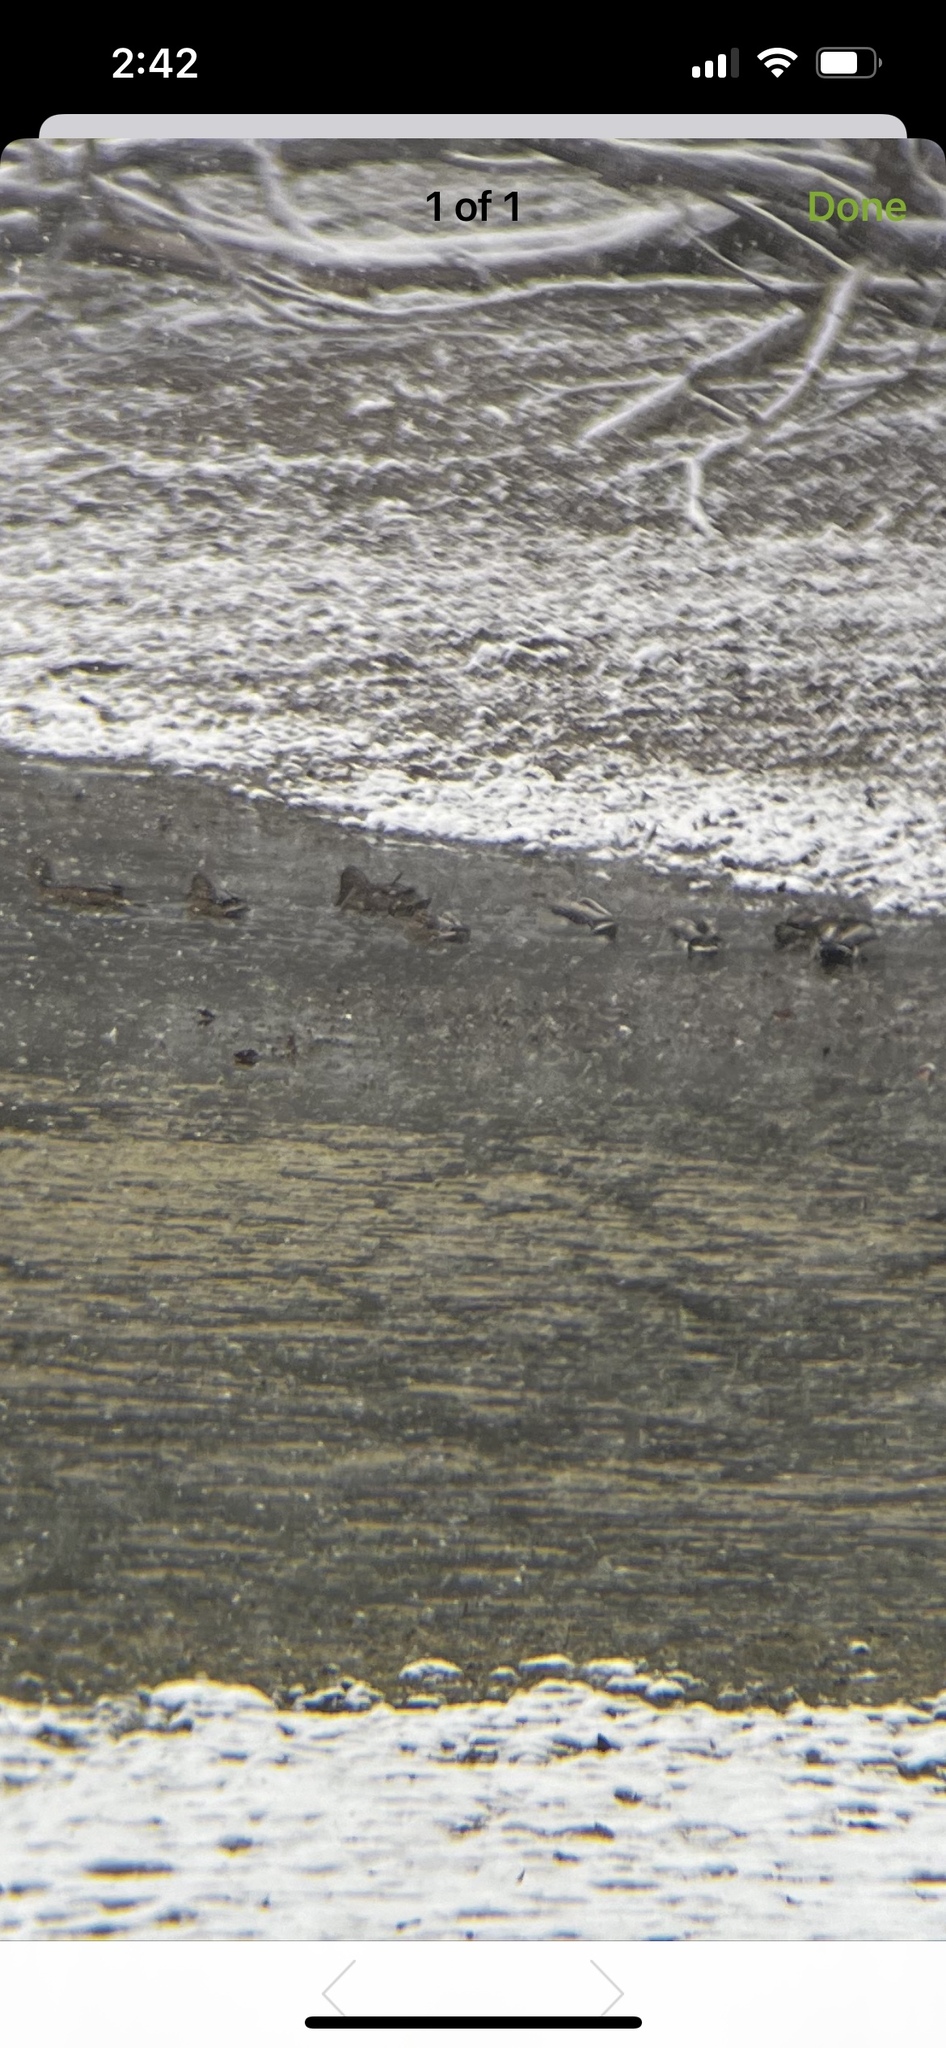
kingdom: Animalia
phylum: Chordata
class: Aves
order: Anseriformes
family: Anatidae
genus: Anas
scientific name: Anas platyrhynchos
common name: Mallard
